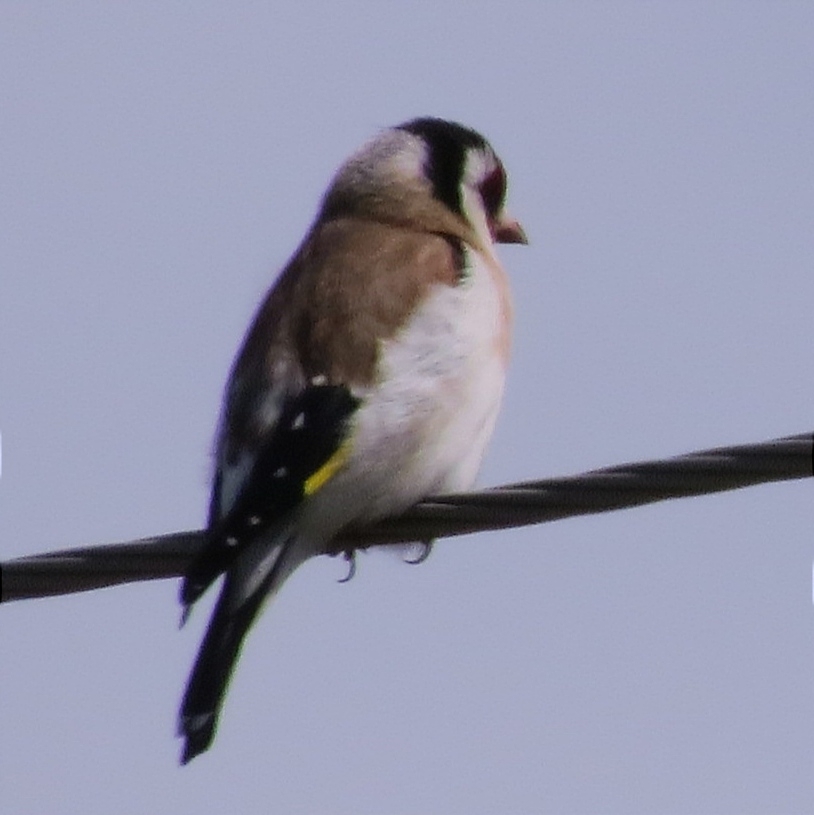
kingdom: Animalia
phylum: Chordata
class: Aves
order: Passeriformes
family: Fringillidae
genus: Carduelis
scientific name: Carduelis carduelis
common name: European goldfinch
